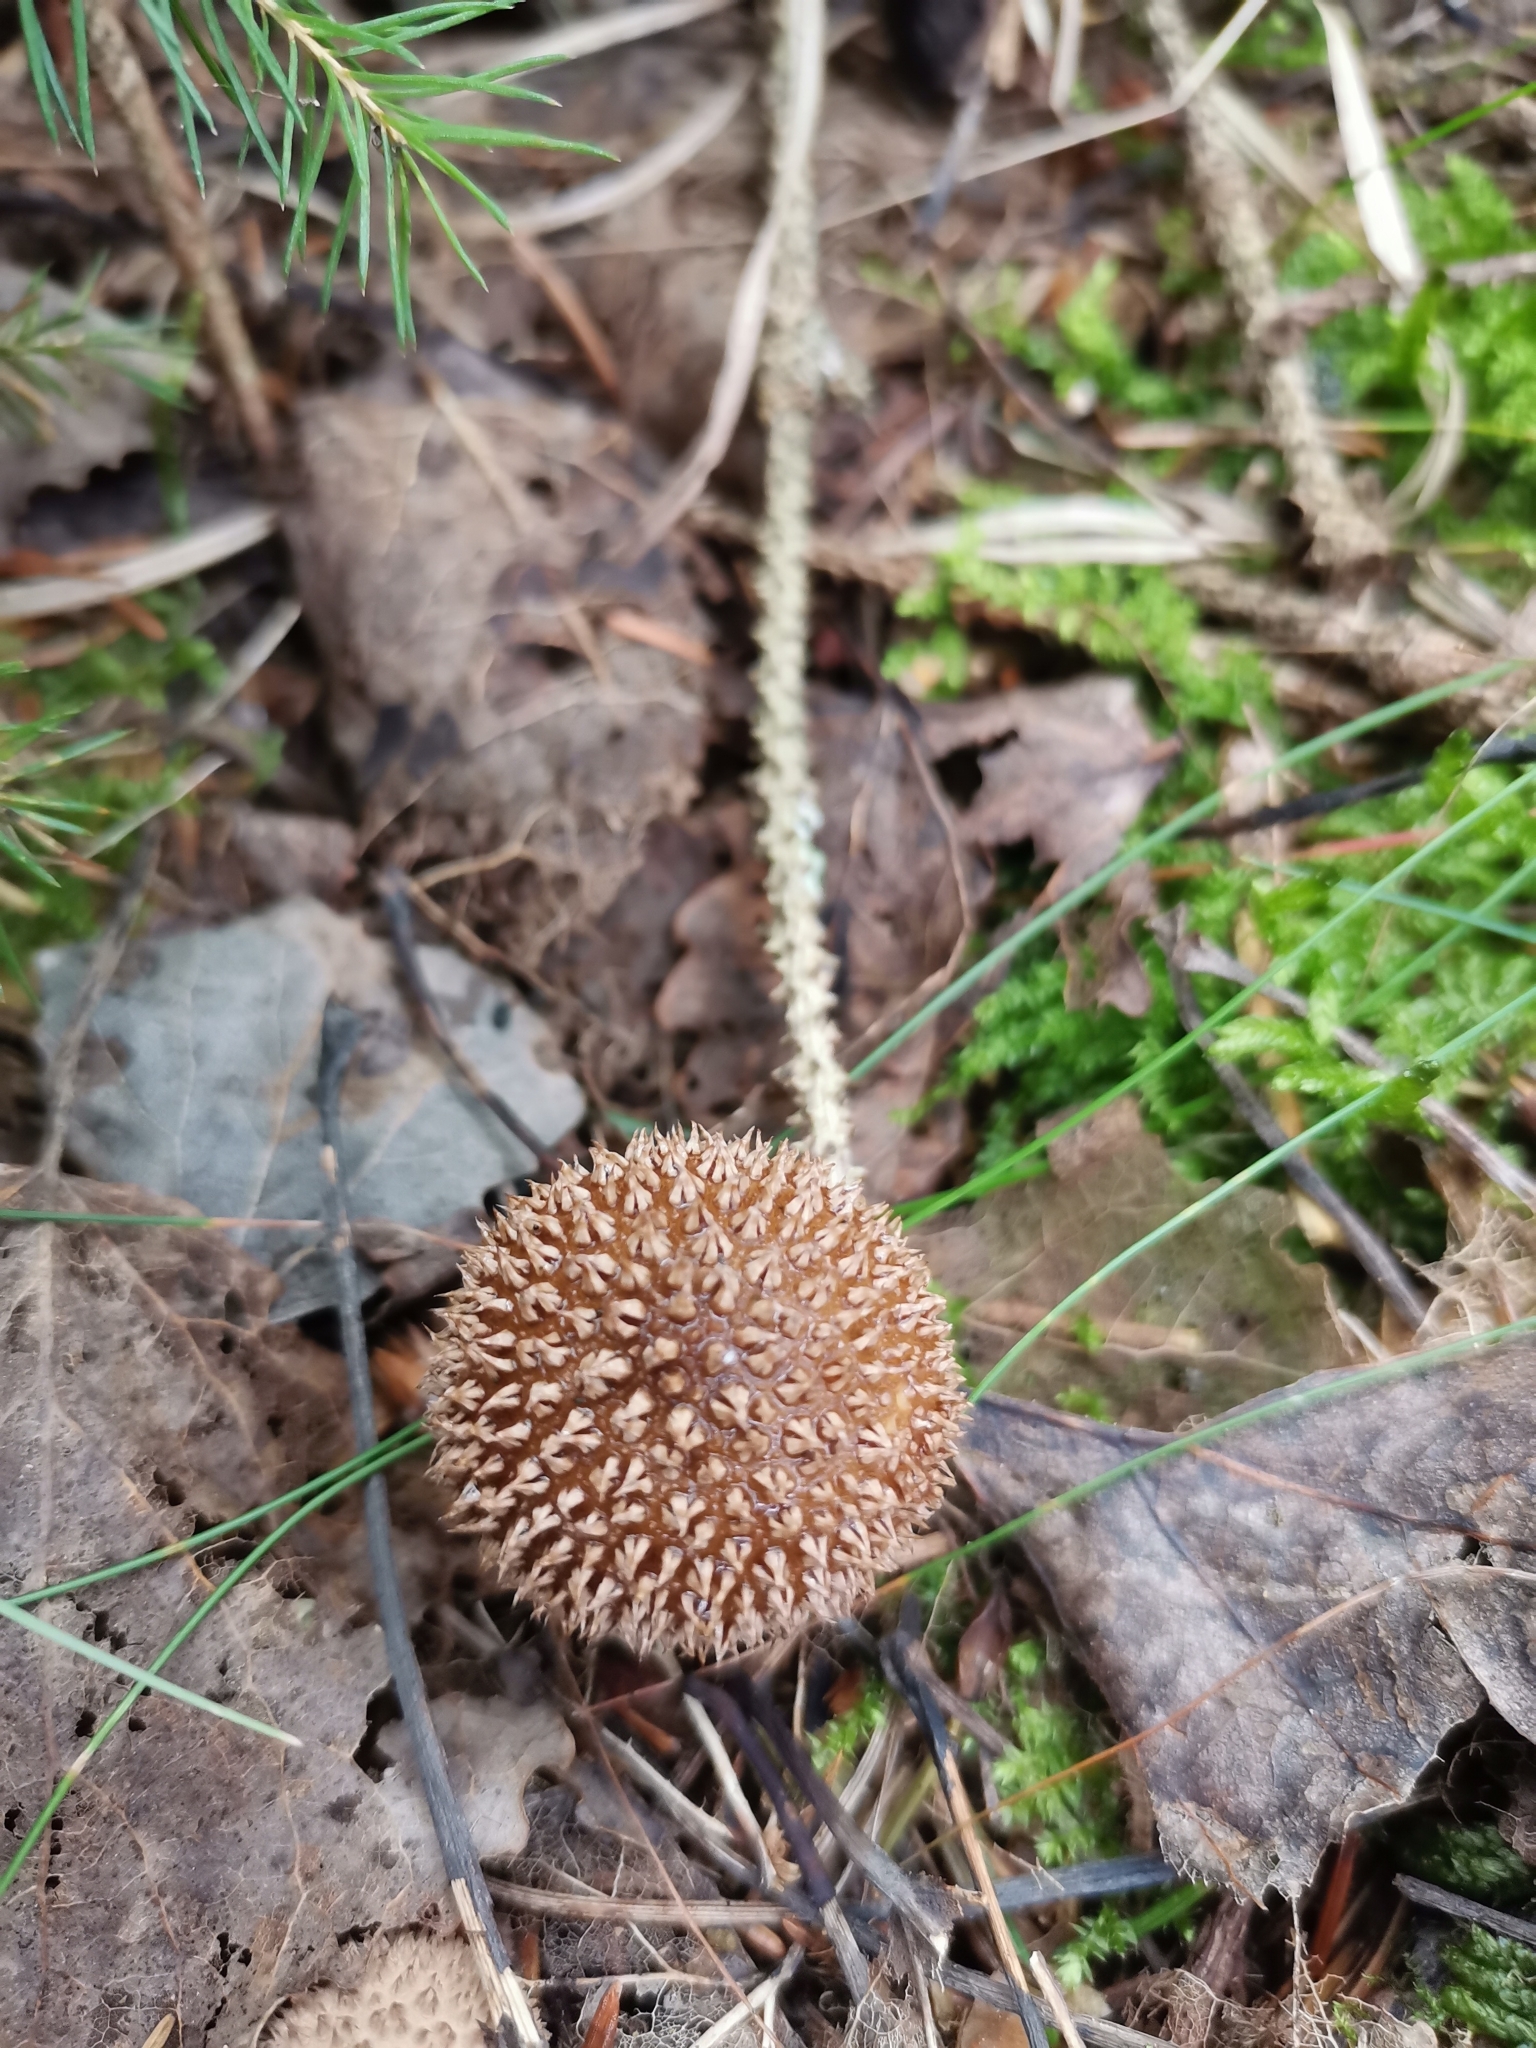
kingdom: Fungi
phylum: Basidiomycota
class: Agaricomycetes
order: Agaricales
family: Lycoperdaceae
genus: Lycoperdon
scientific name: Lycoperdon echinatum
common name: Hedgehog puffball
